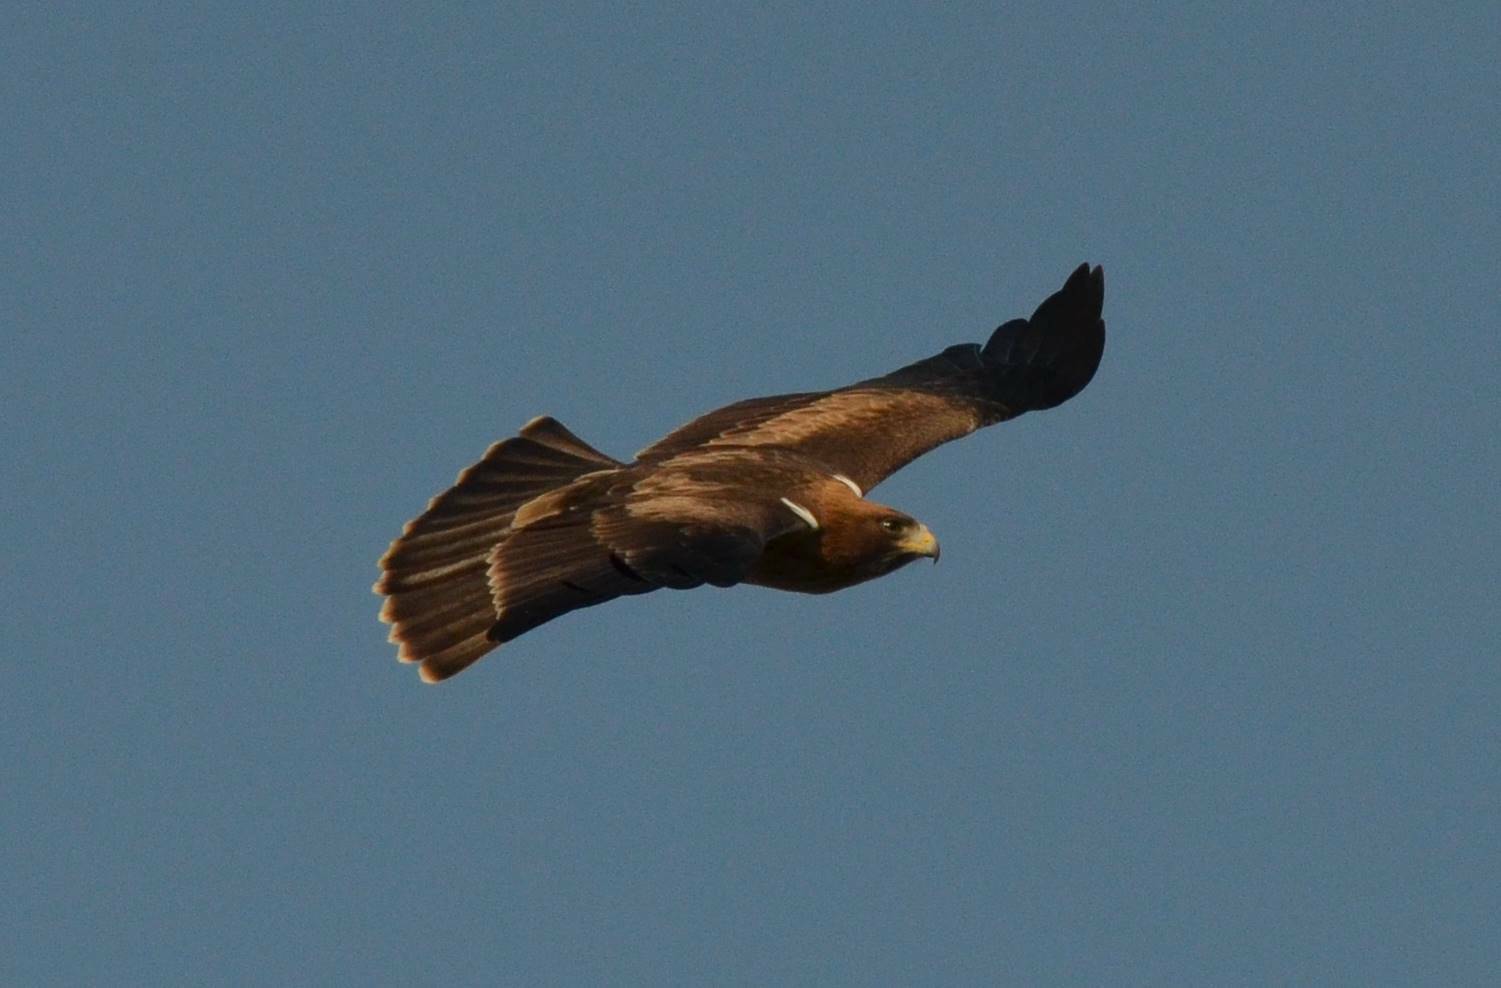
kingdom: Animalia
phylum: Chordata
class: Aves
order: Accipitriformes
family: Accipitridae
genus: Hieraaetus
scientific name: Hieraaetus pennatus
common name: Booted eagle
